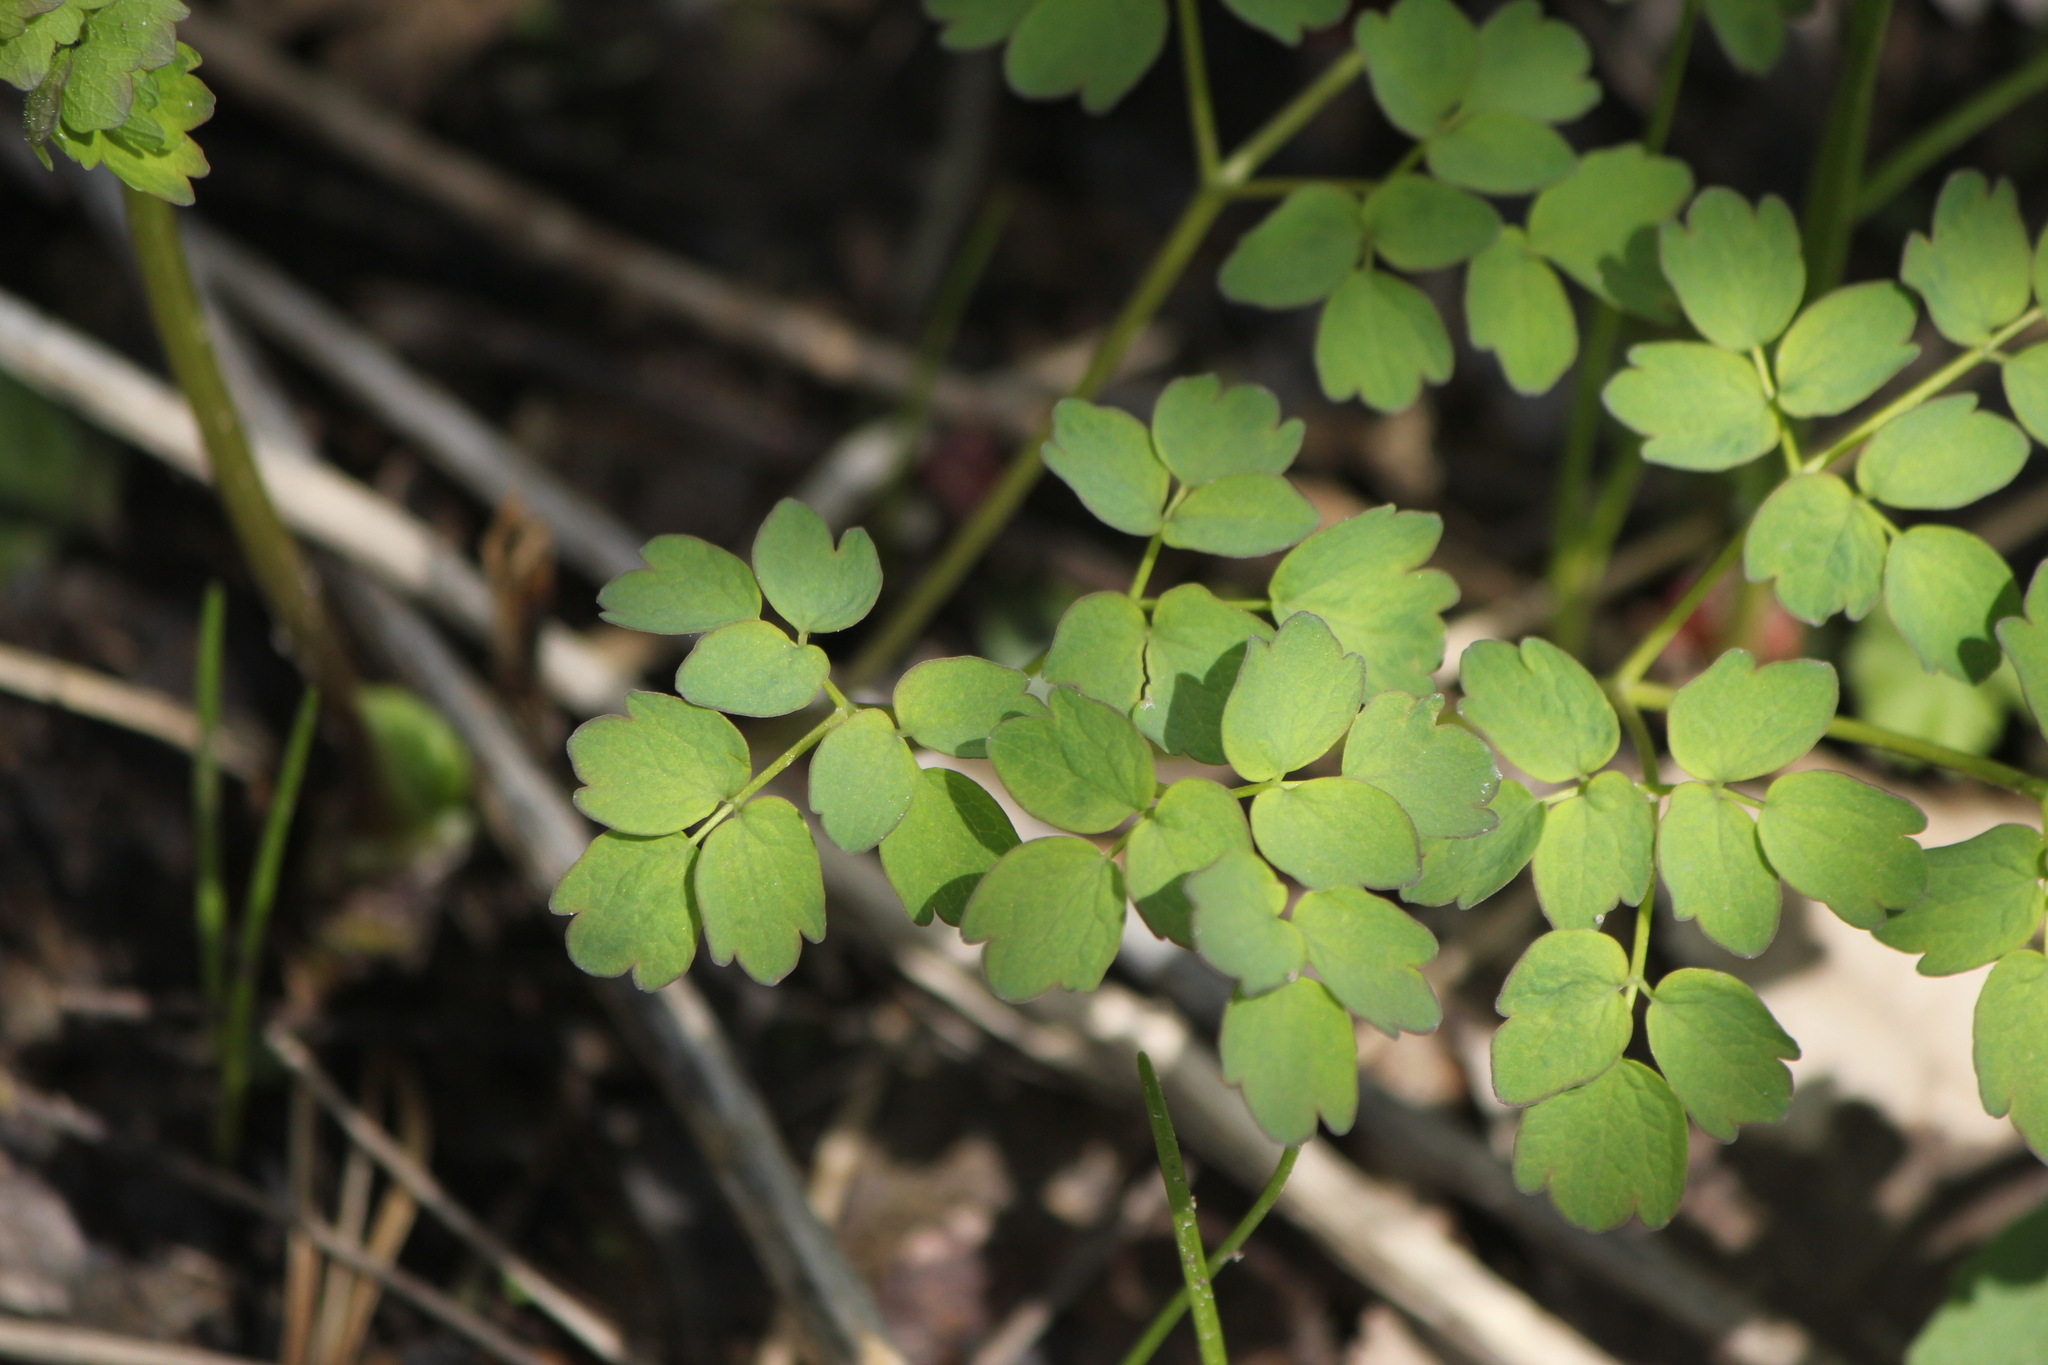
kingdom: Plantae
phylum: Tracheophyta
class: Magnoliopsida
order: Ranunculales
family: Ranunculaceae
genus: Thalictrum
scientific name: Thalictrum dioicum
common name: Early meadow-rue
